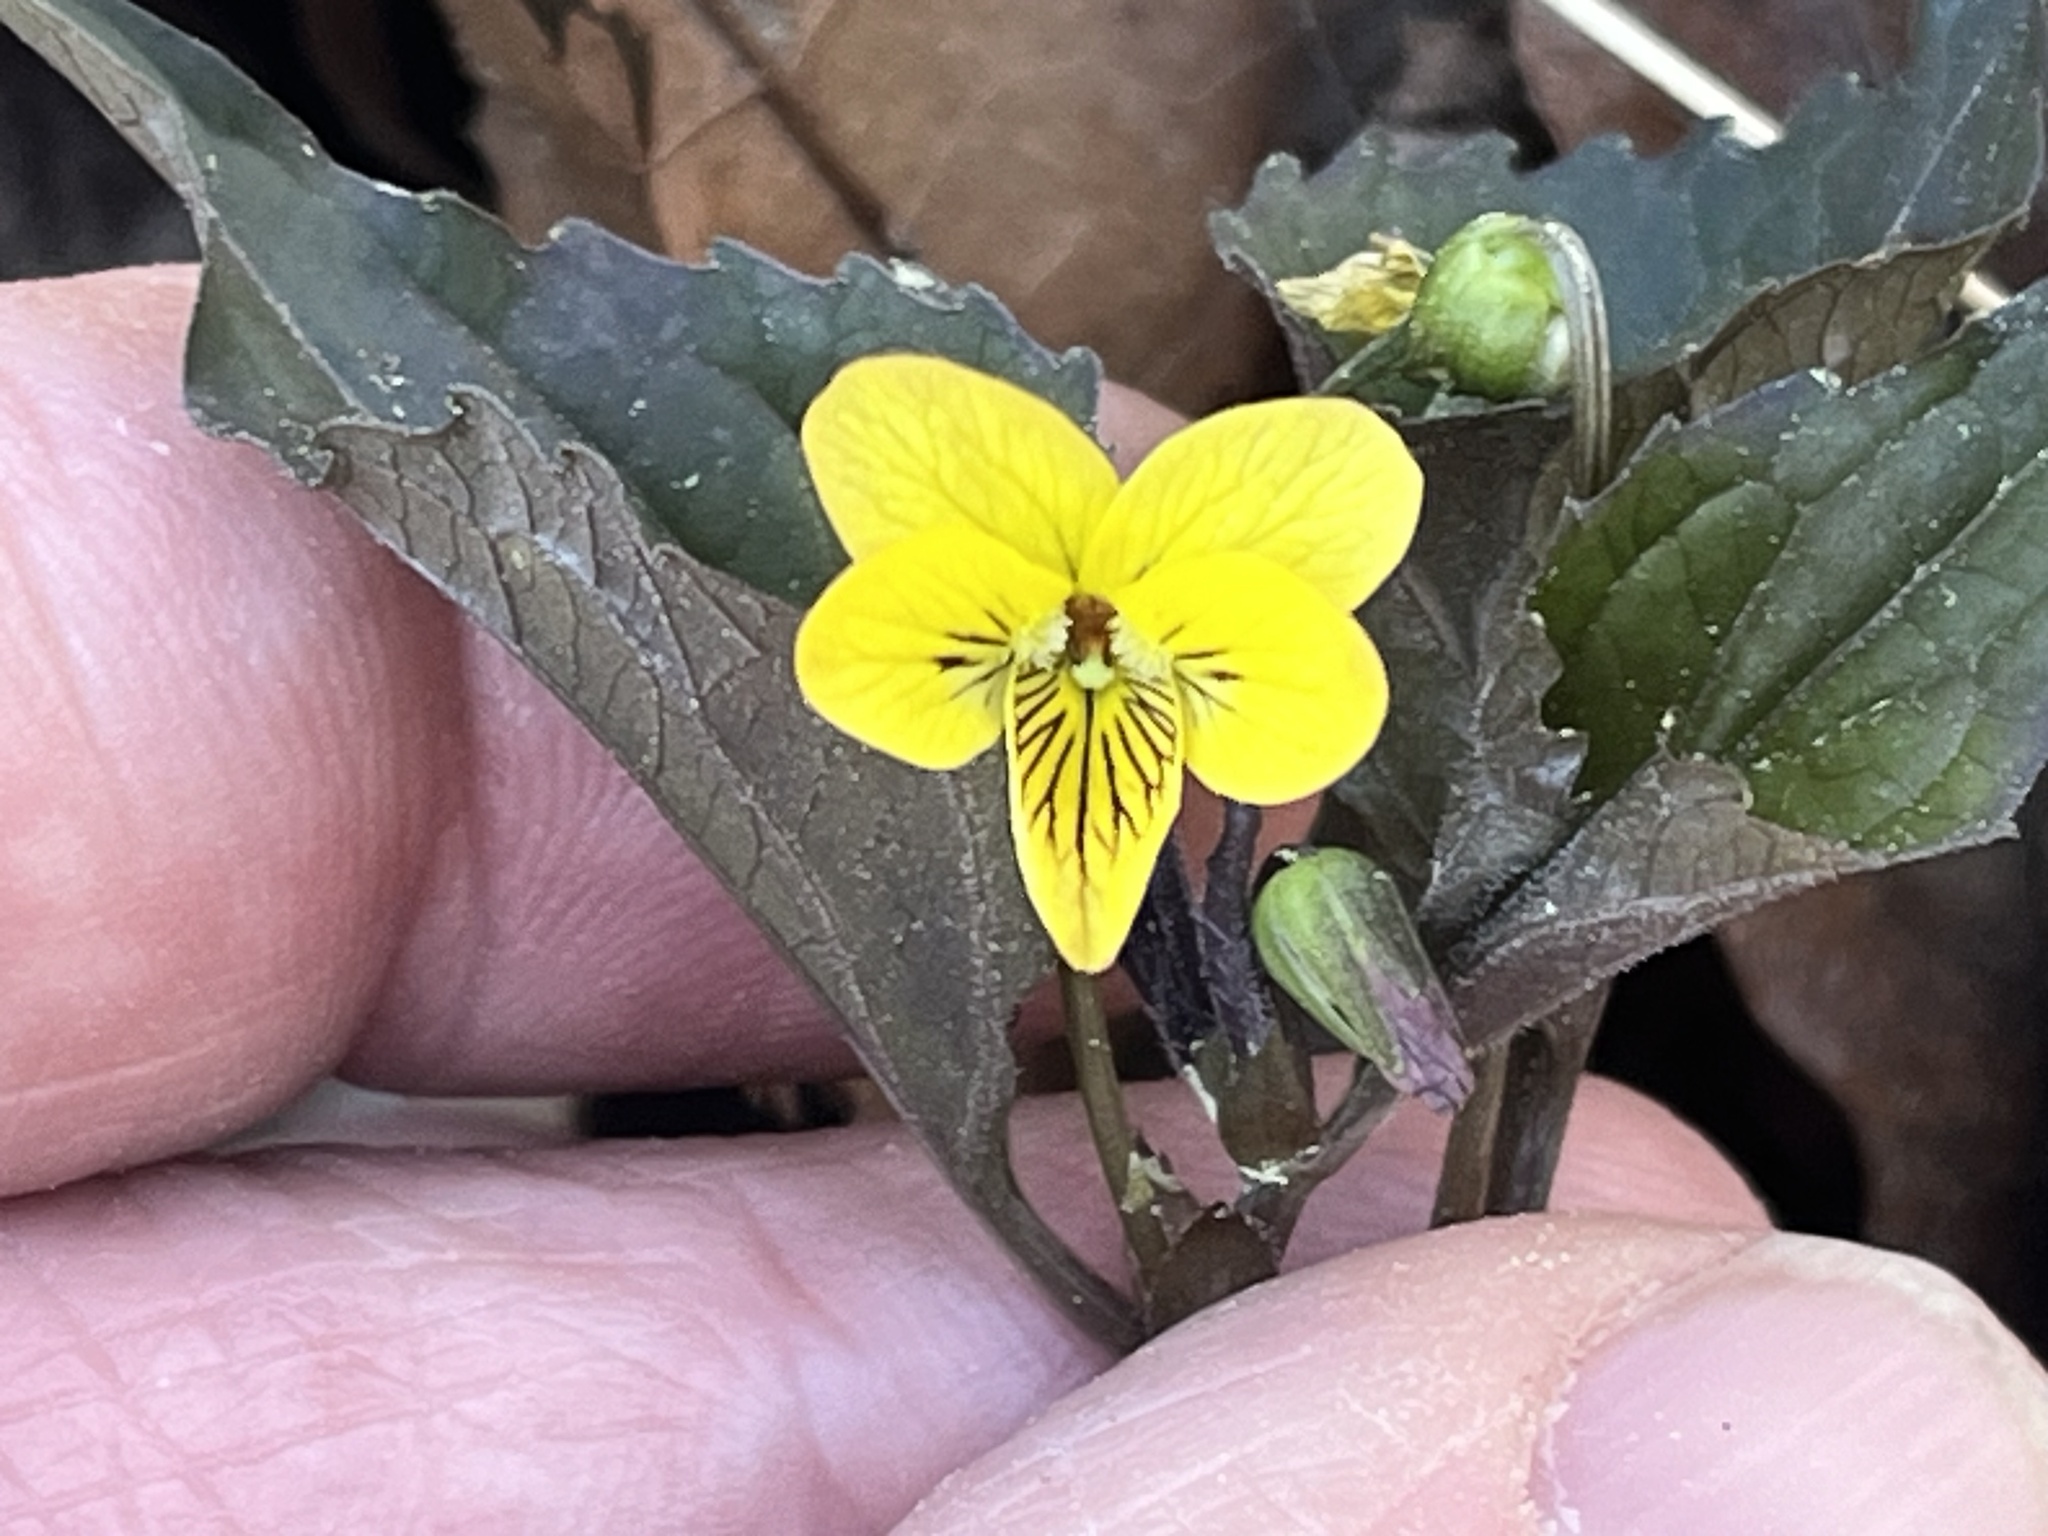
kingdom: Plantae
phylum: Tracheophyta
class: Magnoliopsida
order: Malpighiales
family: Violaceae
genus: Viola
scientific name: Viola tenuipes
